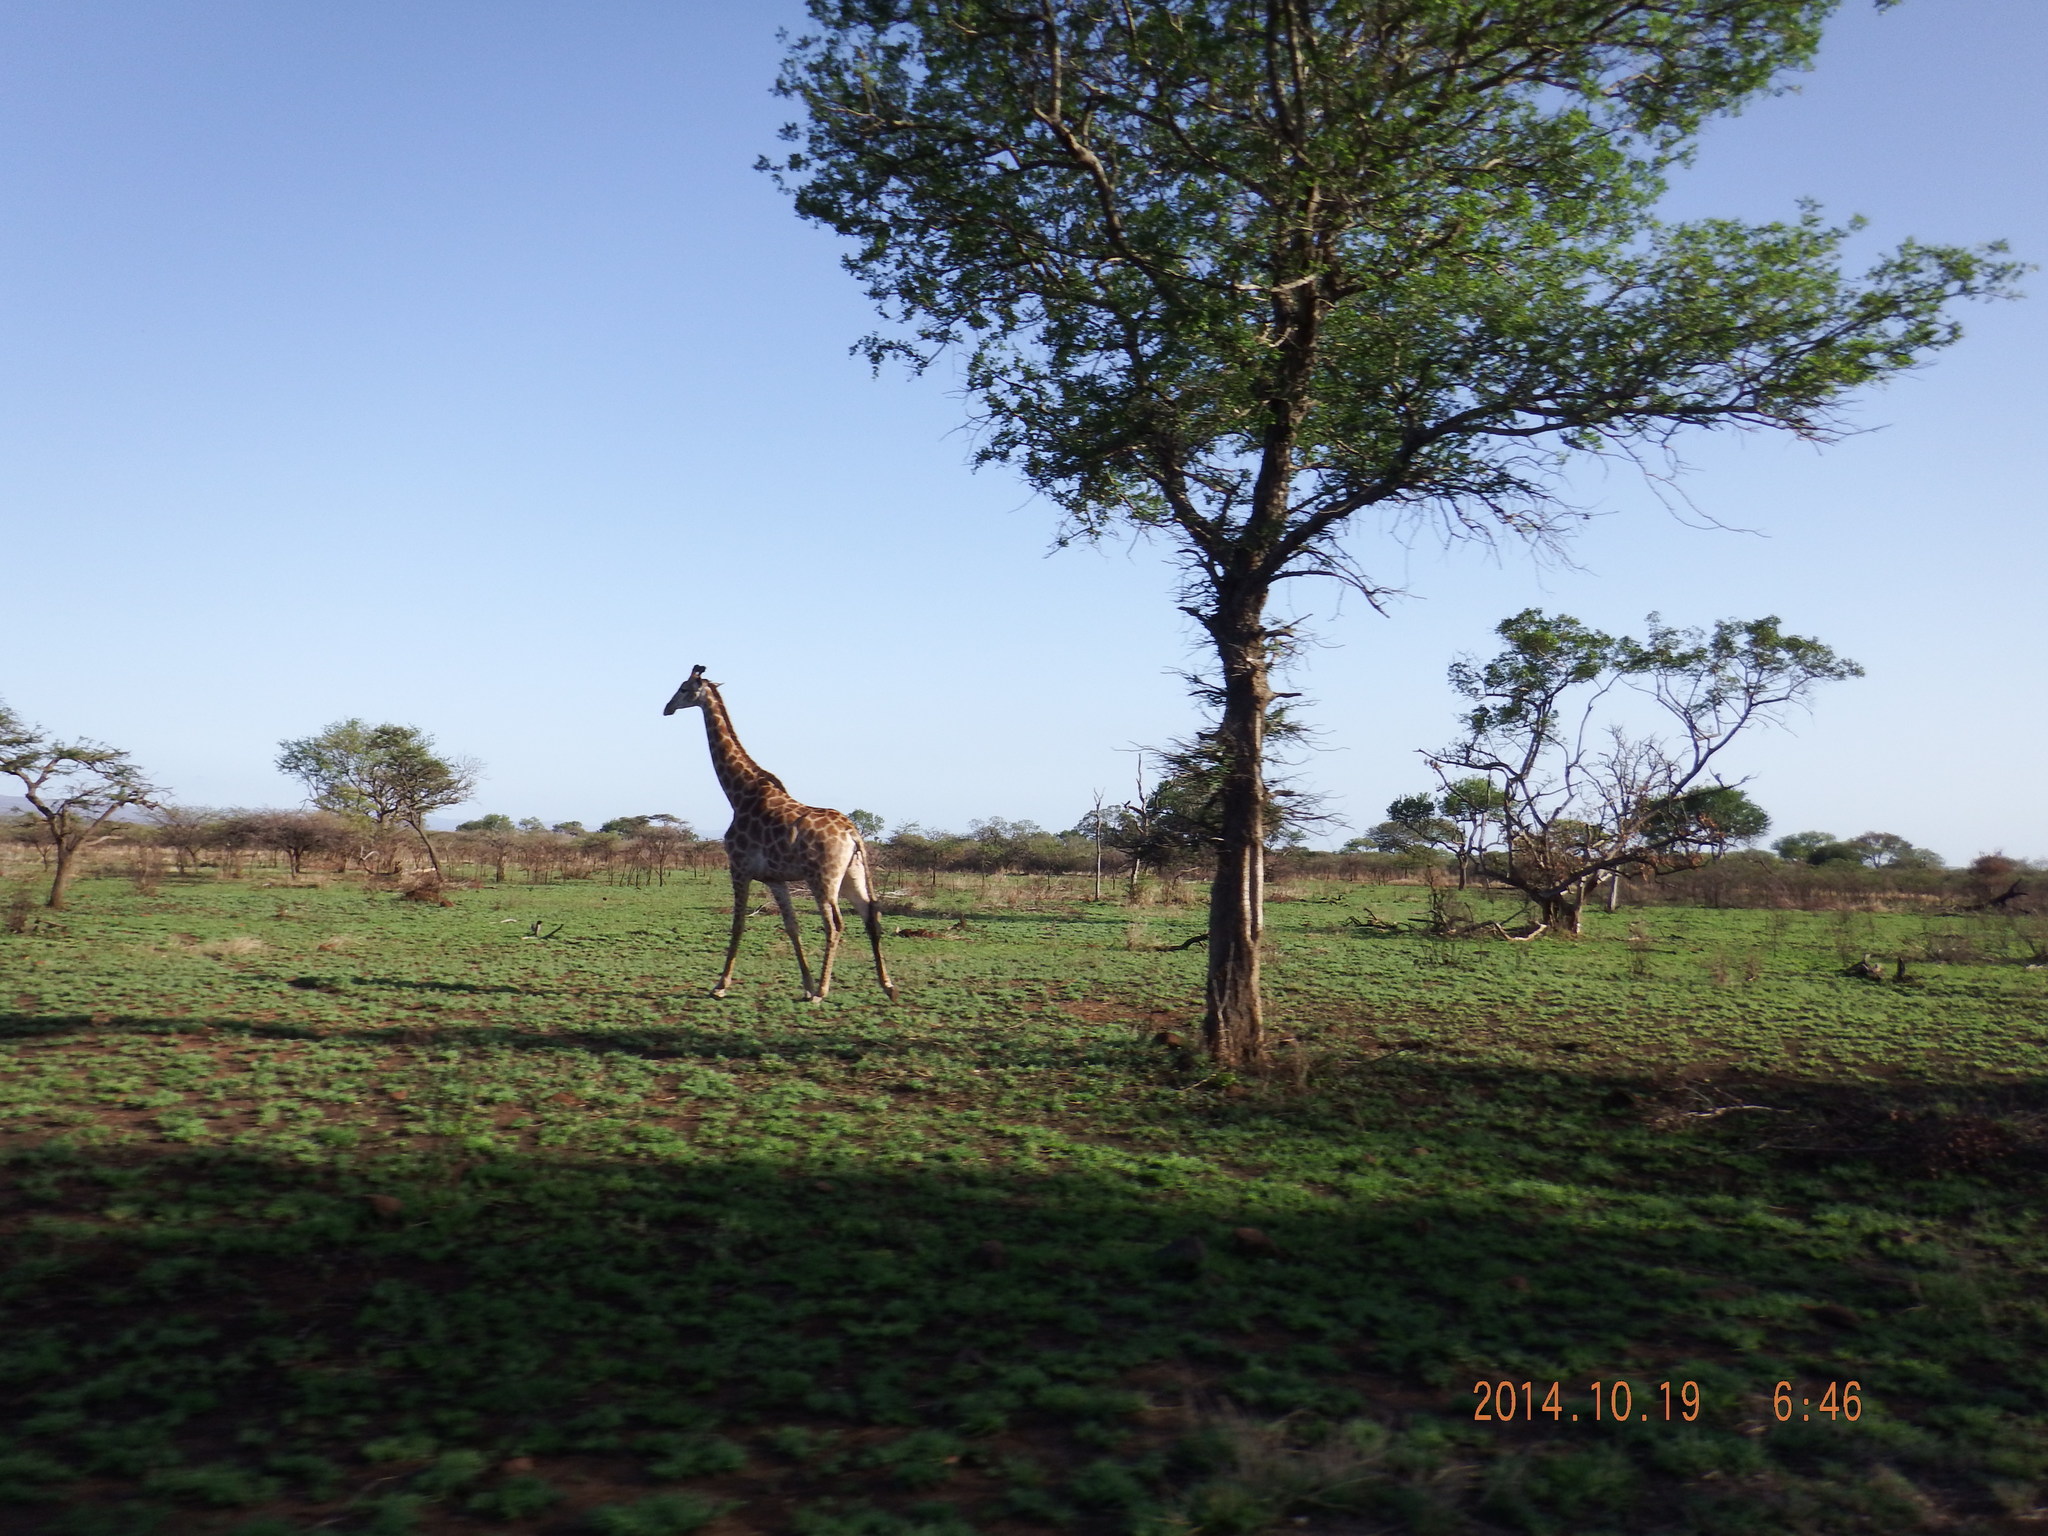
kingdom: Animalia
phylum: Chordata
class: Mammalia
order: Artiodactyla
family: Giraffidae
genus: Giraffa
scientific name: Giraffa giraffa
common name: Southern giraffe
